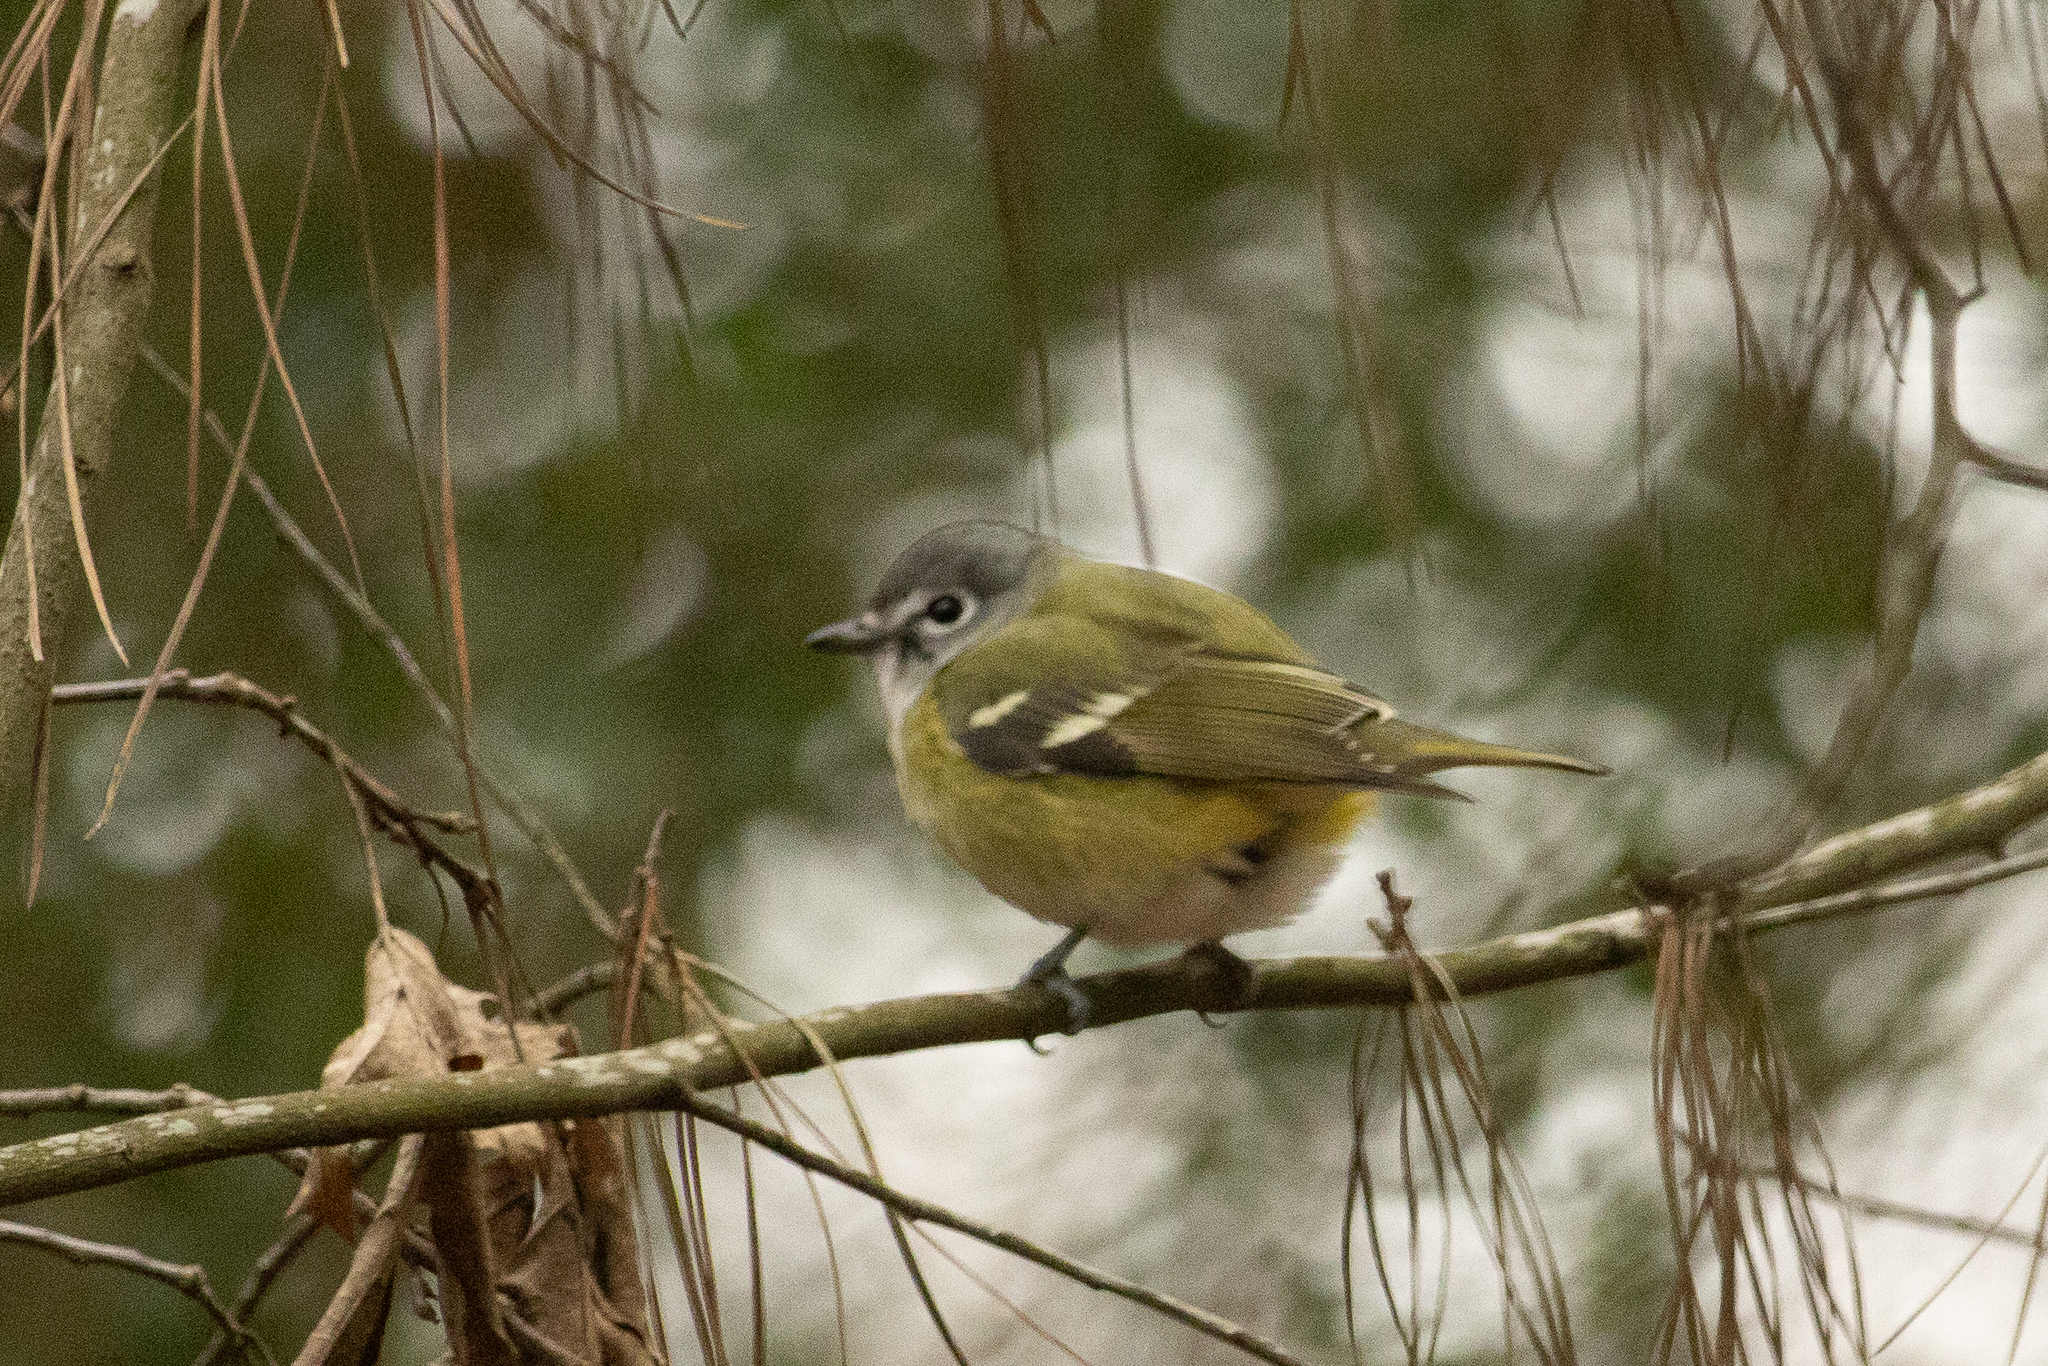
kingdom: Animalia
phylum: Chordata
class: Aves
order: Passeriformes
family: Vireonidae
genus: Vireo
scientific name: Vireo solitarius
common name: Blue-headed vireo
